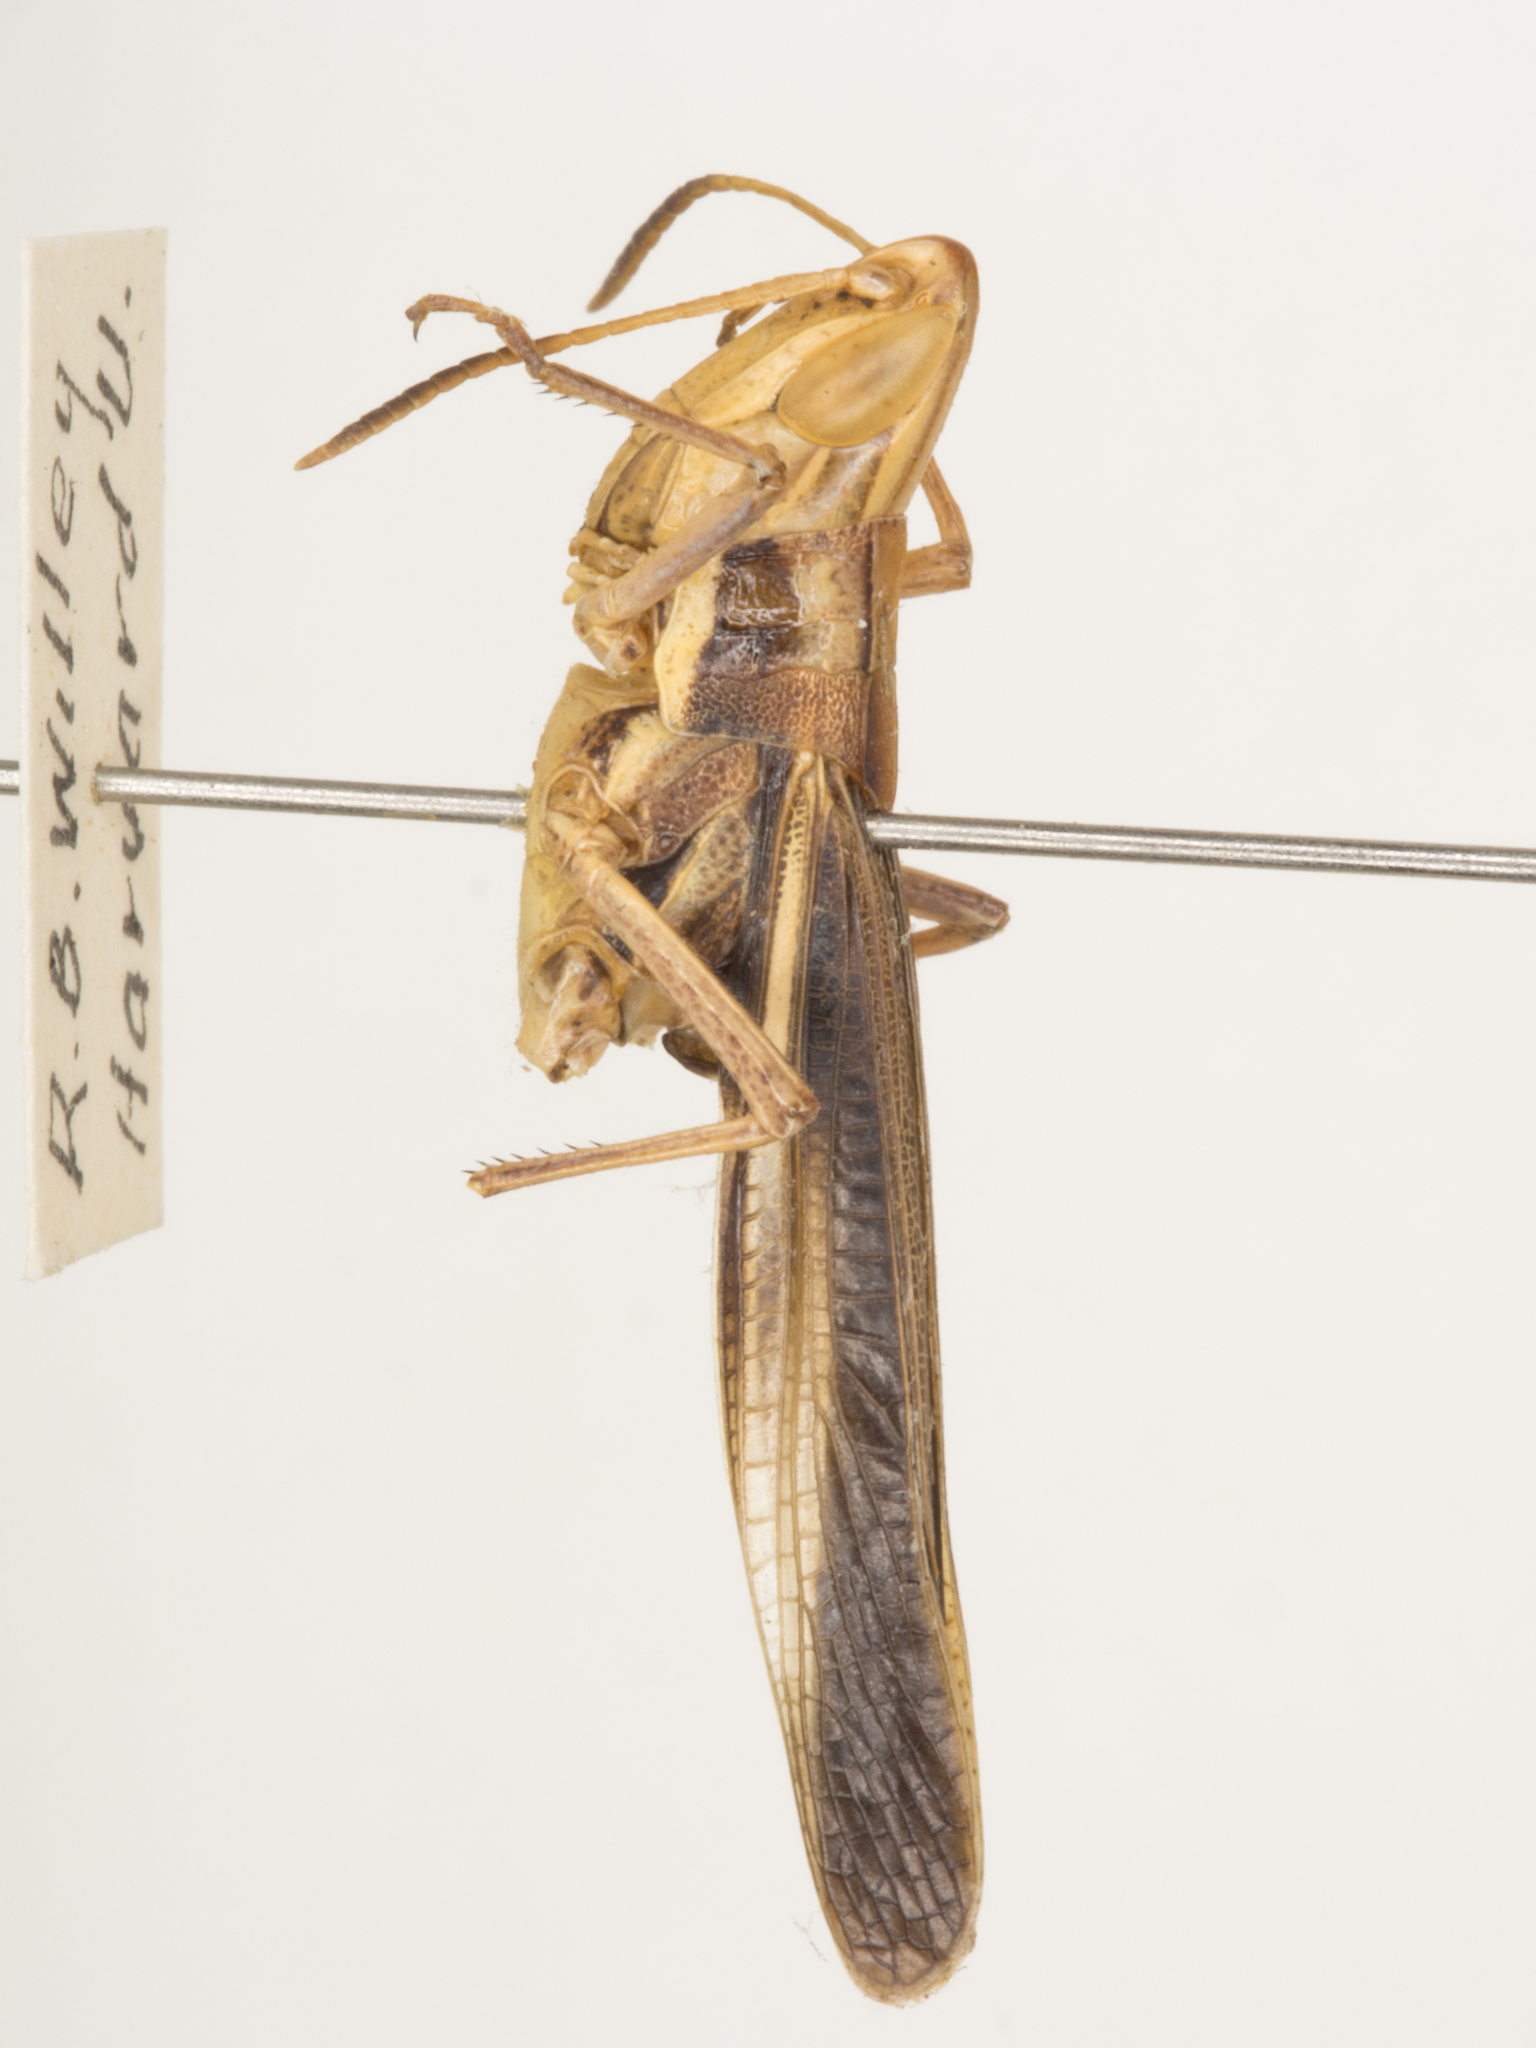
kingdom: Animalia
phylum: Arthropoda
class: Insecta
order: Orthoptera
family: Acrididae
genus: Syrbula
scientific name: Syrbula montezuma
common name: Montezuma's grasshopper
